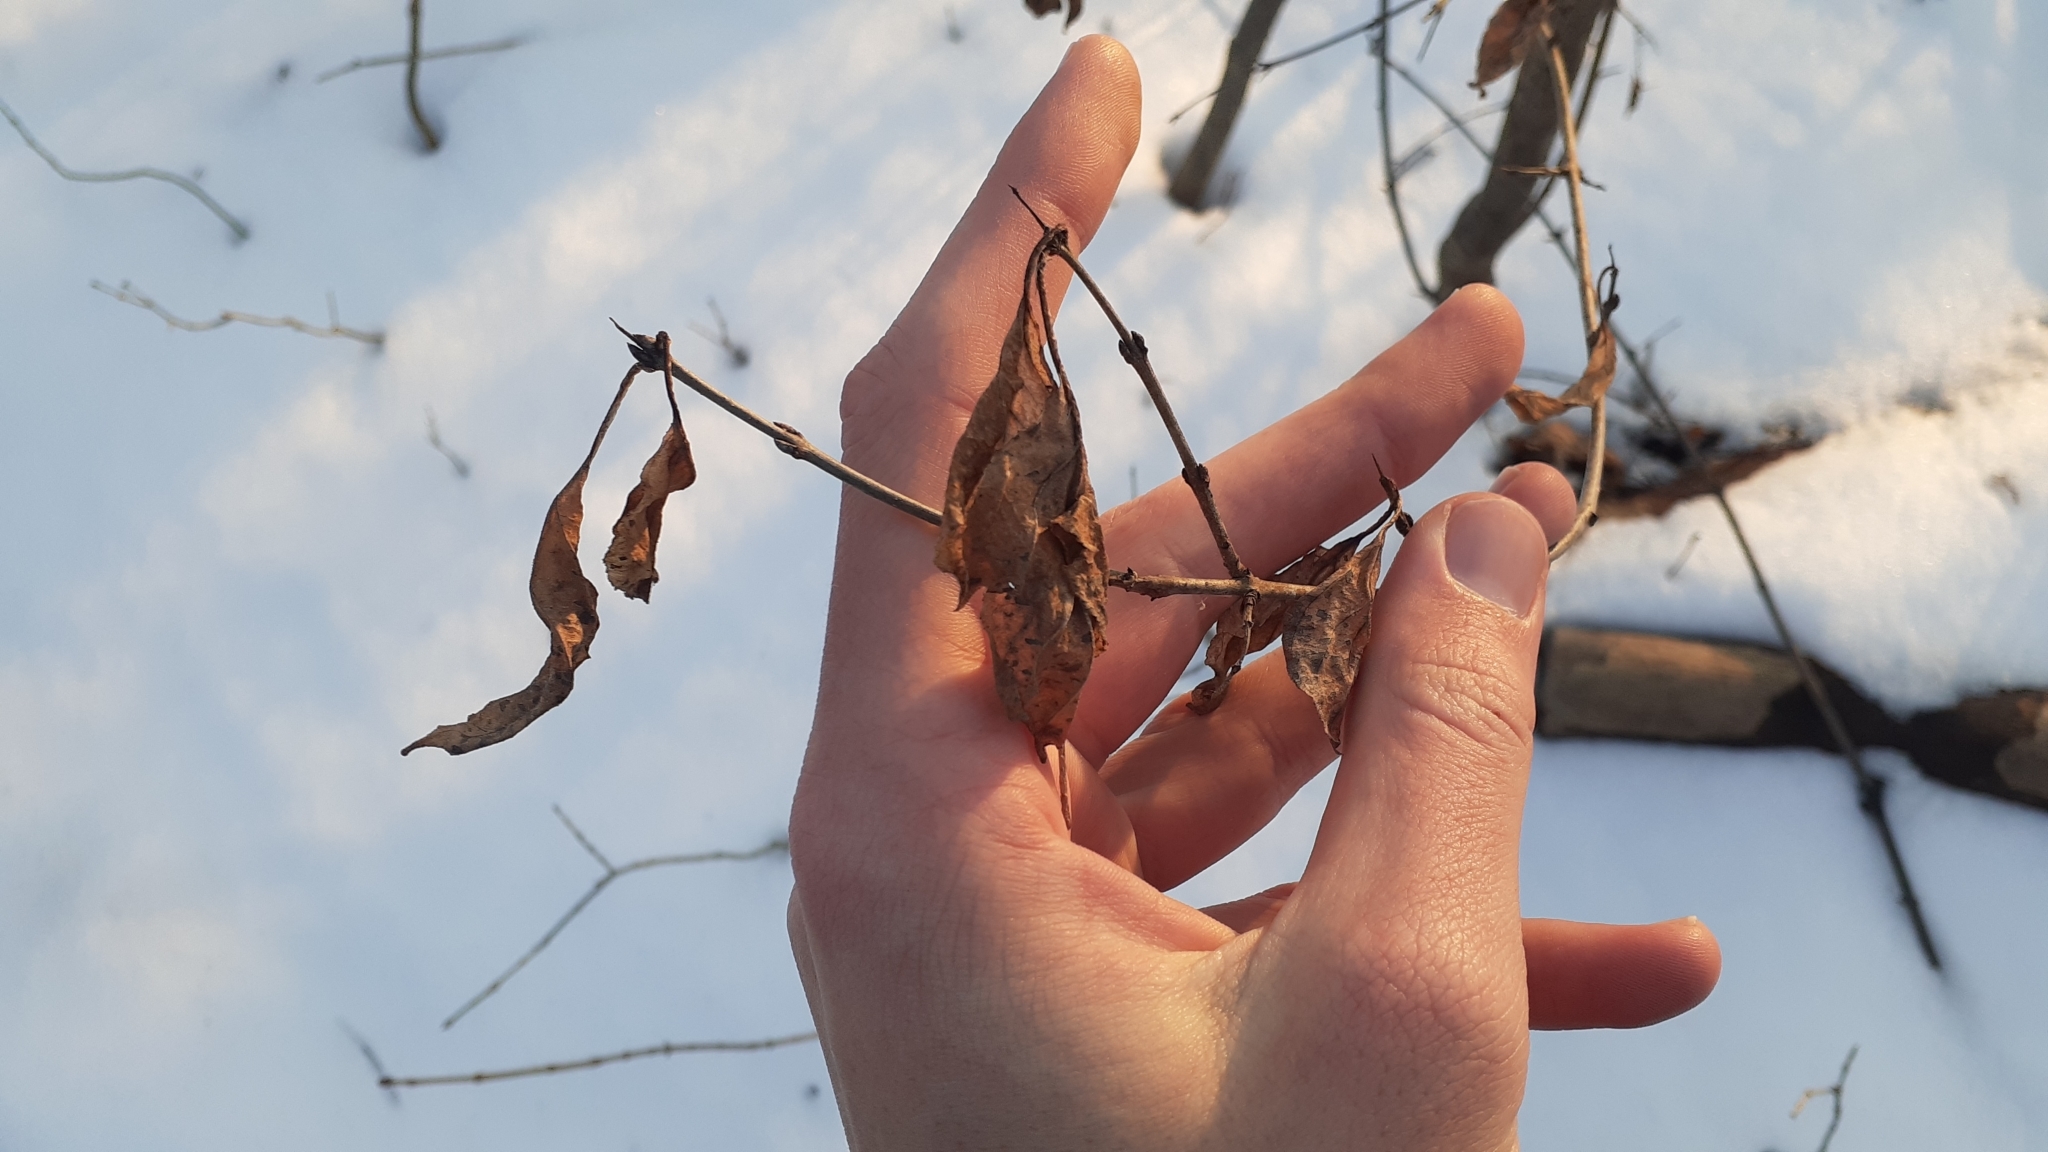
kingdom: Plantae
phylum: Tracheophyta
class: Magnoliopsida
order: Rosales
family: Rhamnaceae
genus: Rhamnus
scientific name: Rhamnus cathartica
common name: Common buckthorn
